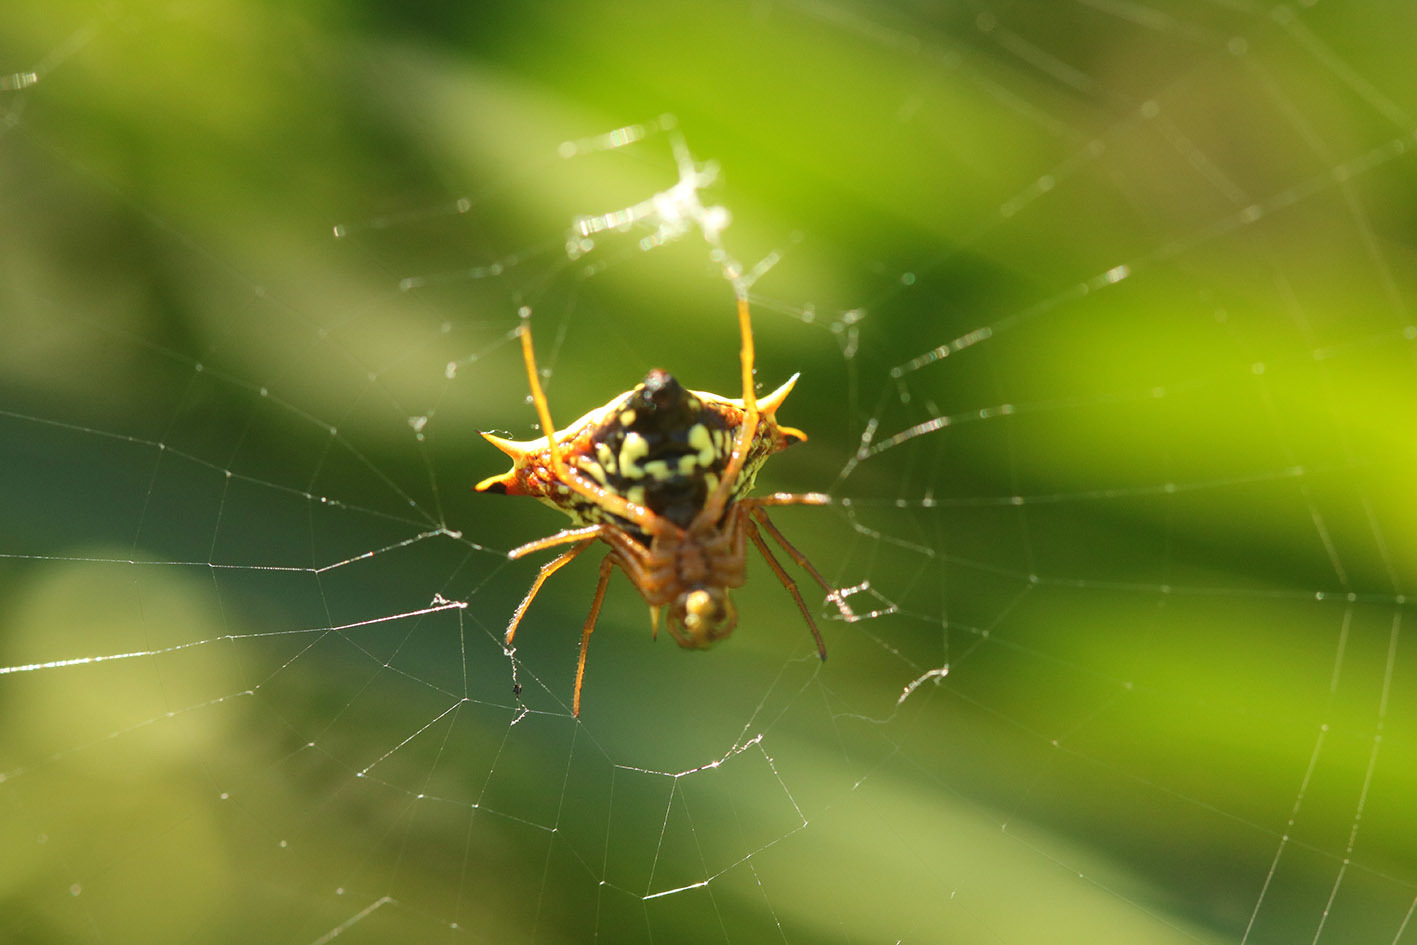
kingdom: Animalia
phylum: Arthropoda
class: Arachnida
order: Araneae
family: Araneidae
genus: Micrathena
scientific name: Micrathena furcata
